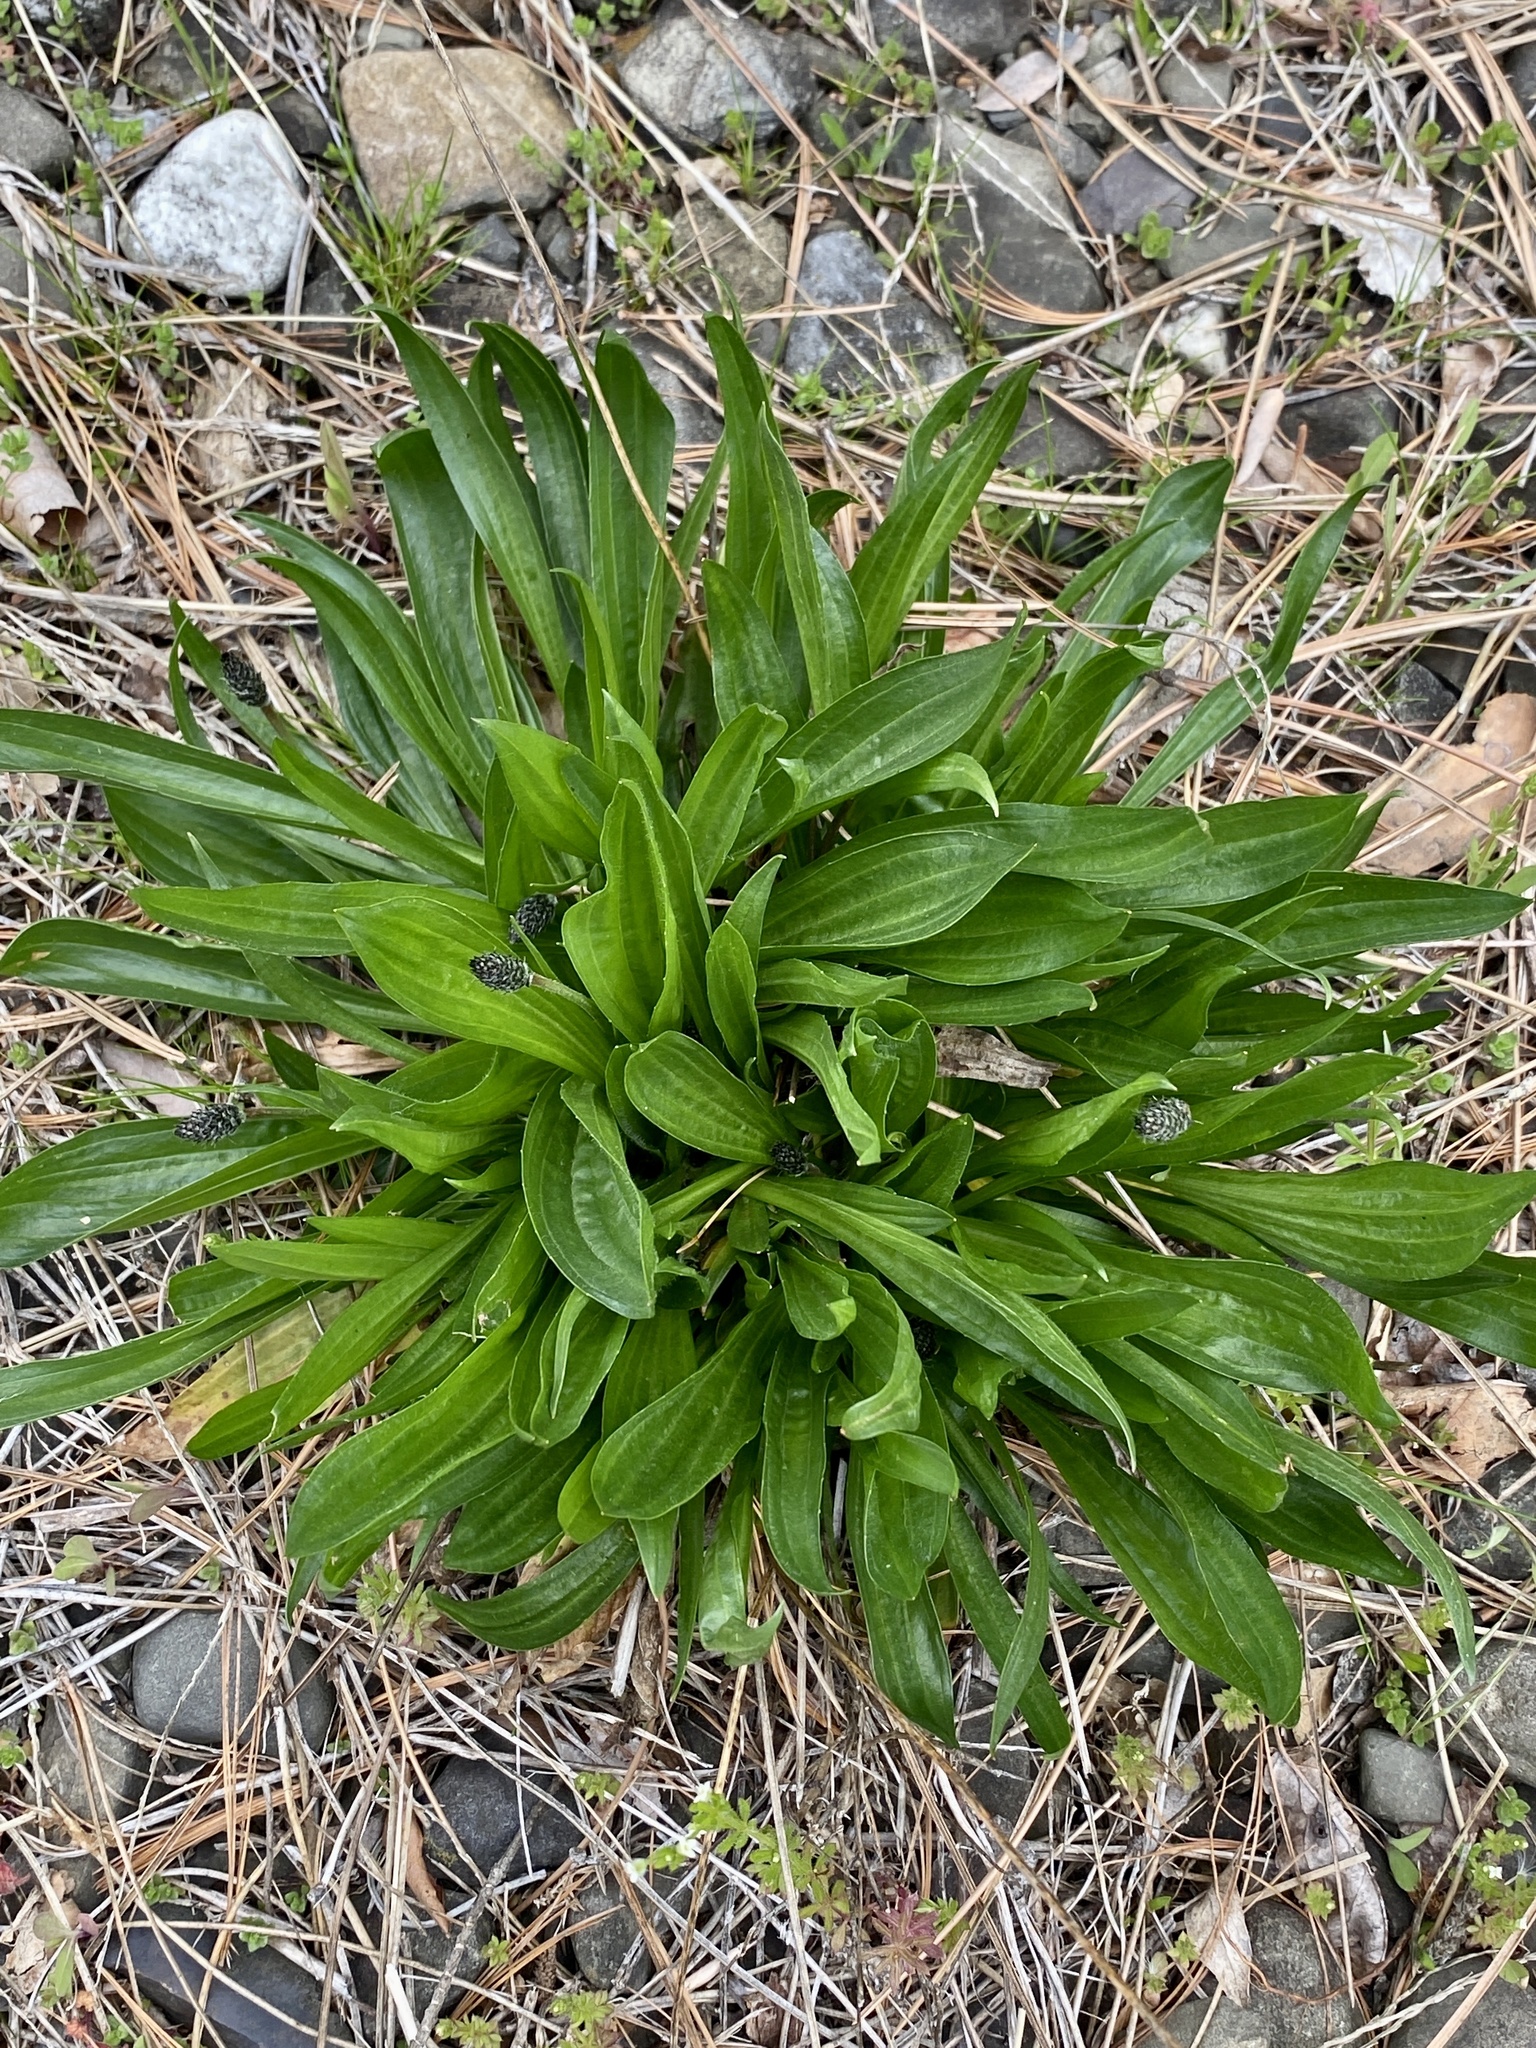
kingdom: Plantae
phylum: Tracheophyta
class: Magnoliopsida
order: Lamiales
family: Plantaginaceae
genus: Plantago
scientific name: Plantago lanceolata
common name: Ribwort plantain
